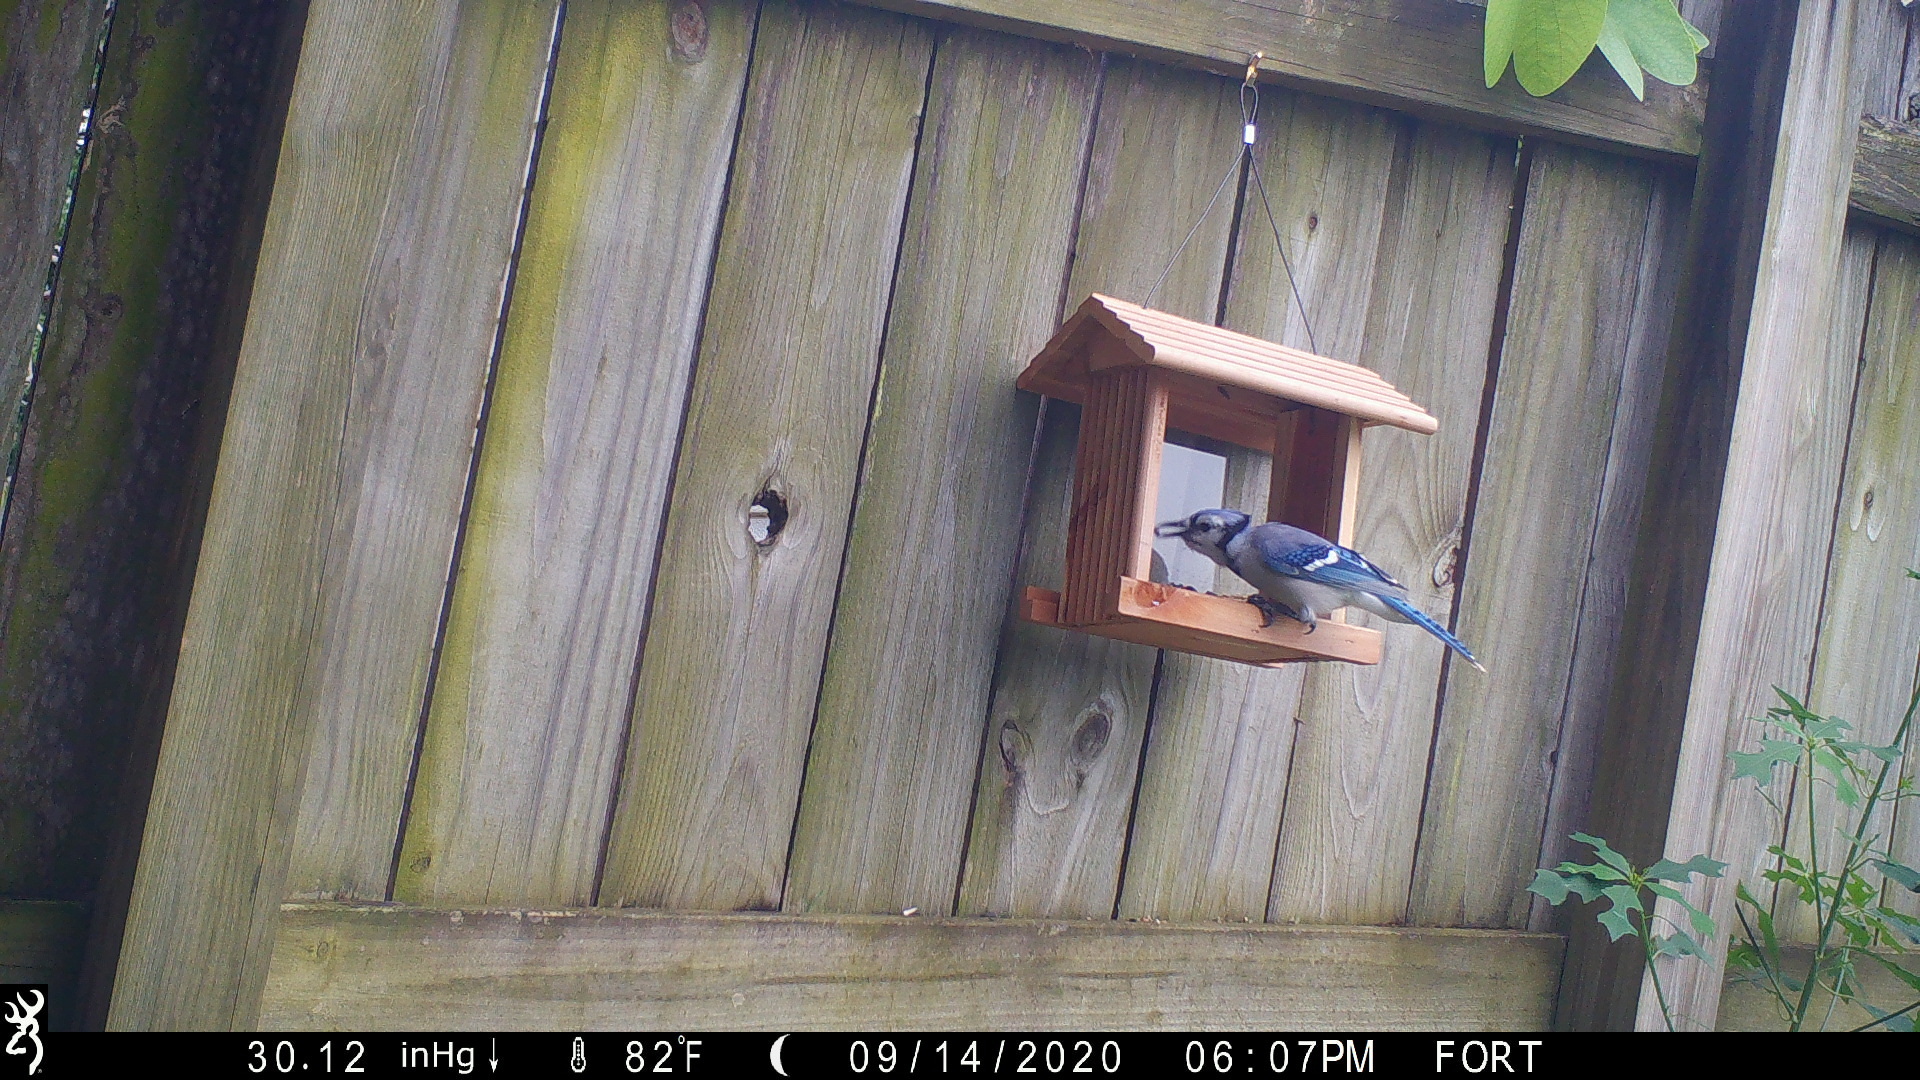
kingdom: Animalia
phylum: Chordata
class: Aves
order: Passeriformes
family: Corvidae
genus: Cyanocitta
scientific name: Cyanocitta cristata
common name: Blue jay
